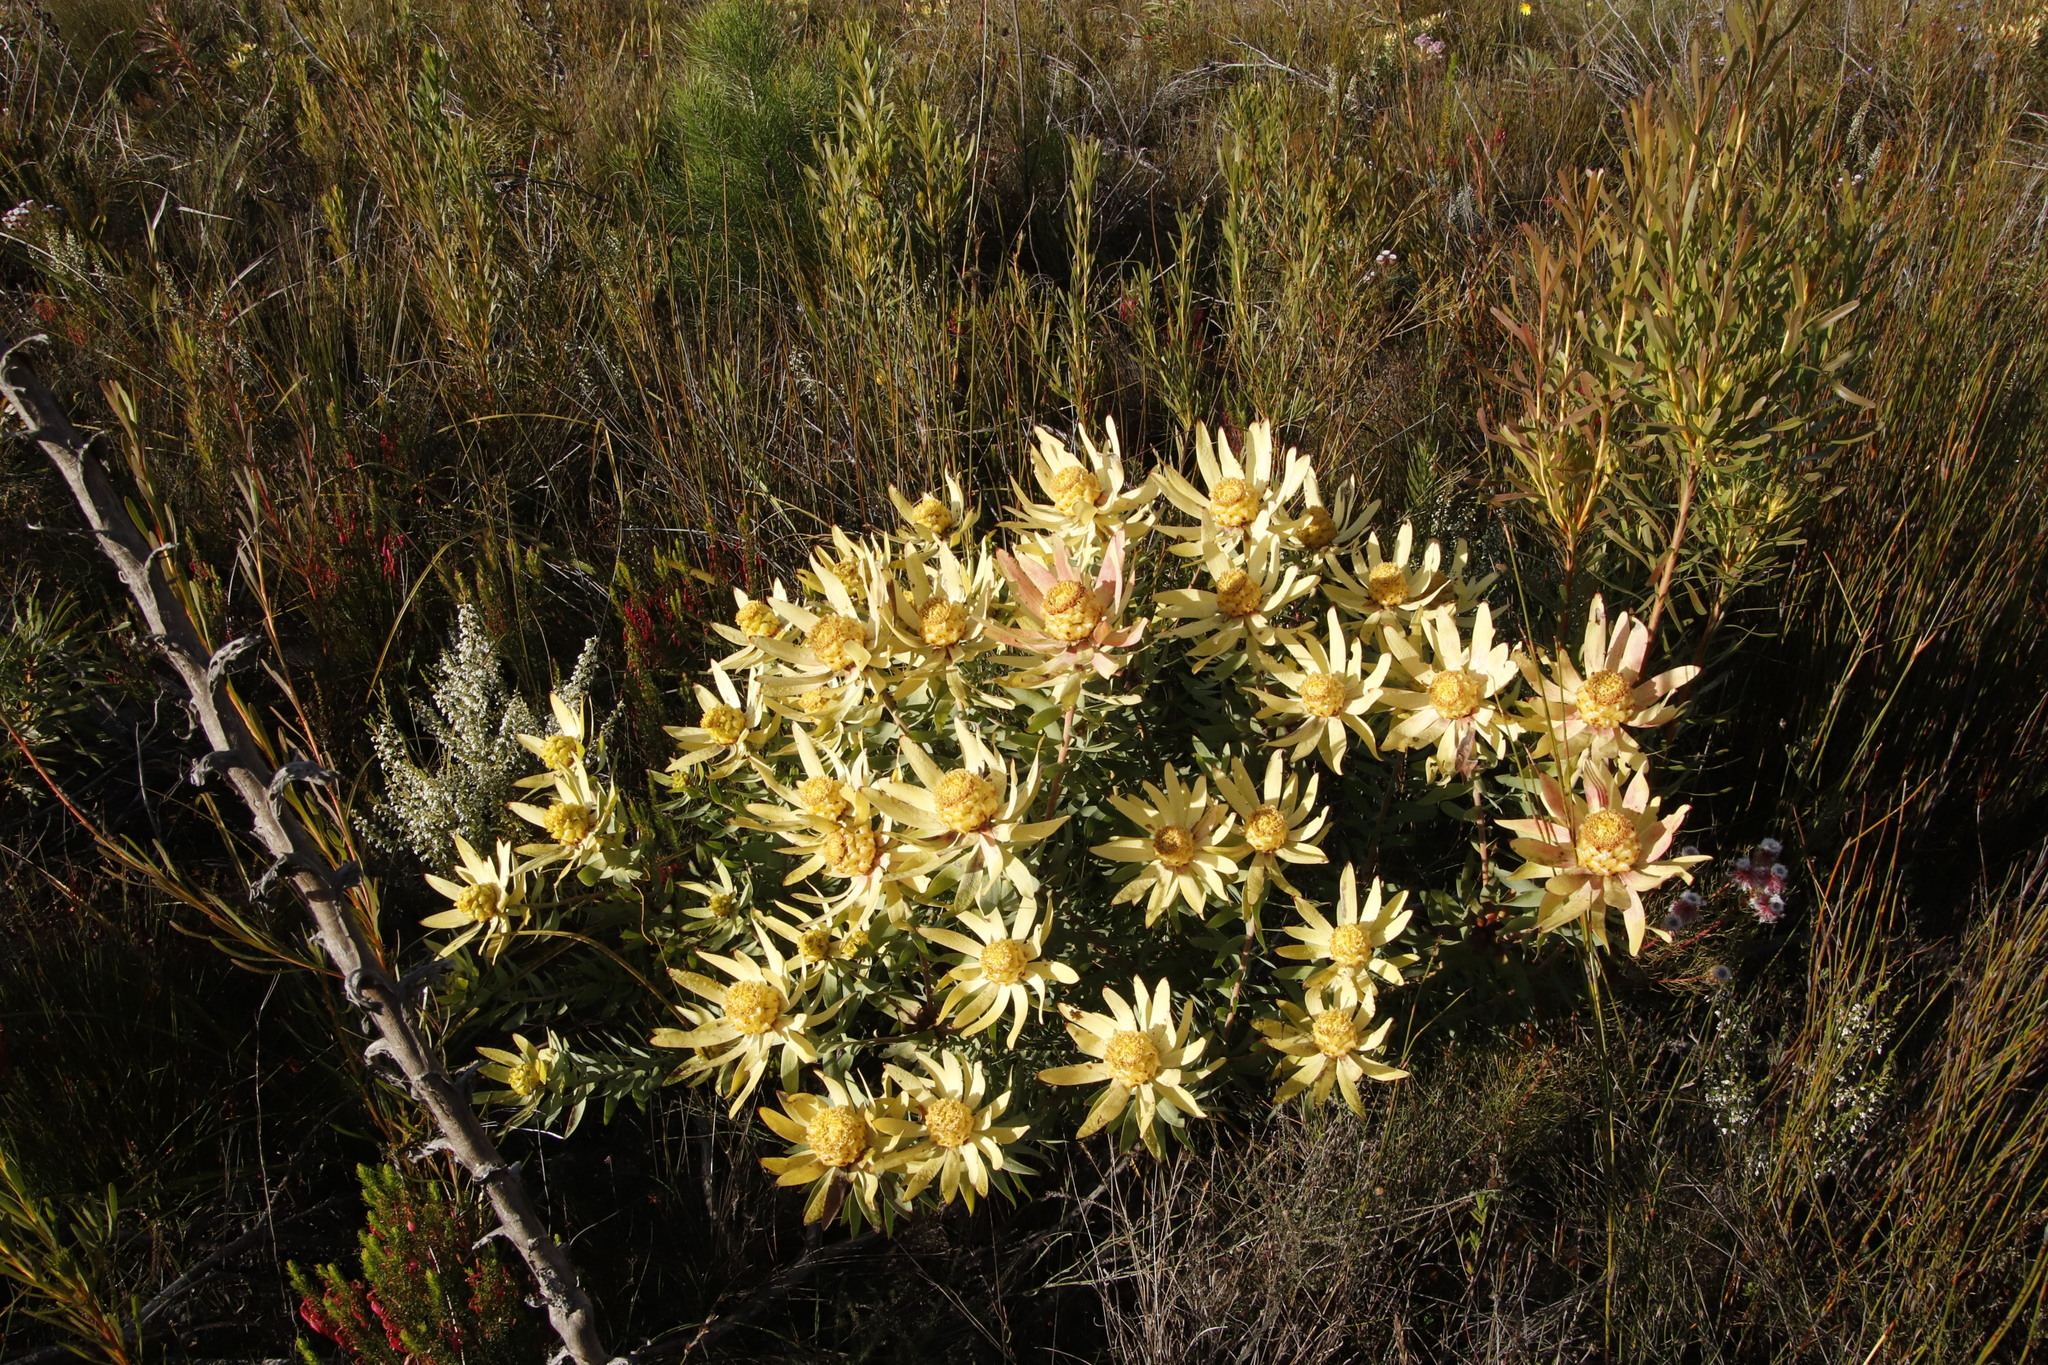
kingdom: Plantae
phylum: Tracheophyta
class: Magnoliopsida
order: Proteales
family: Proteaceae
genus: Leucadendron
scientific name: Leucadendron tinctum
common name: Spicy conebush
